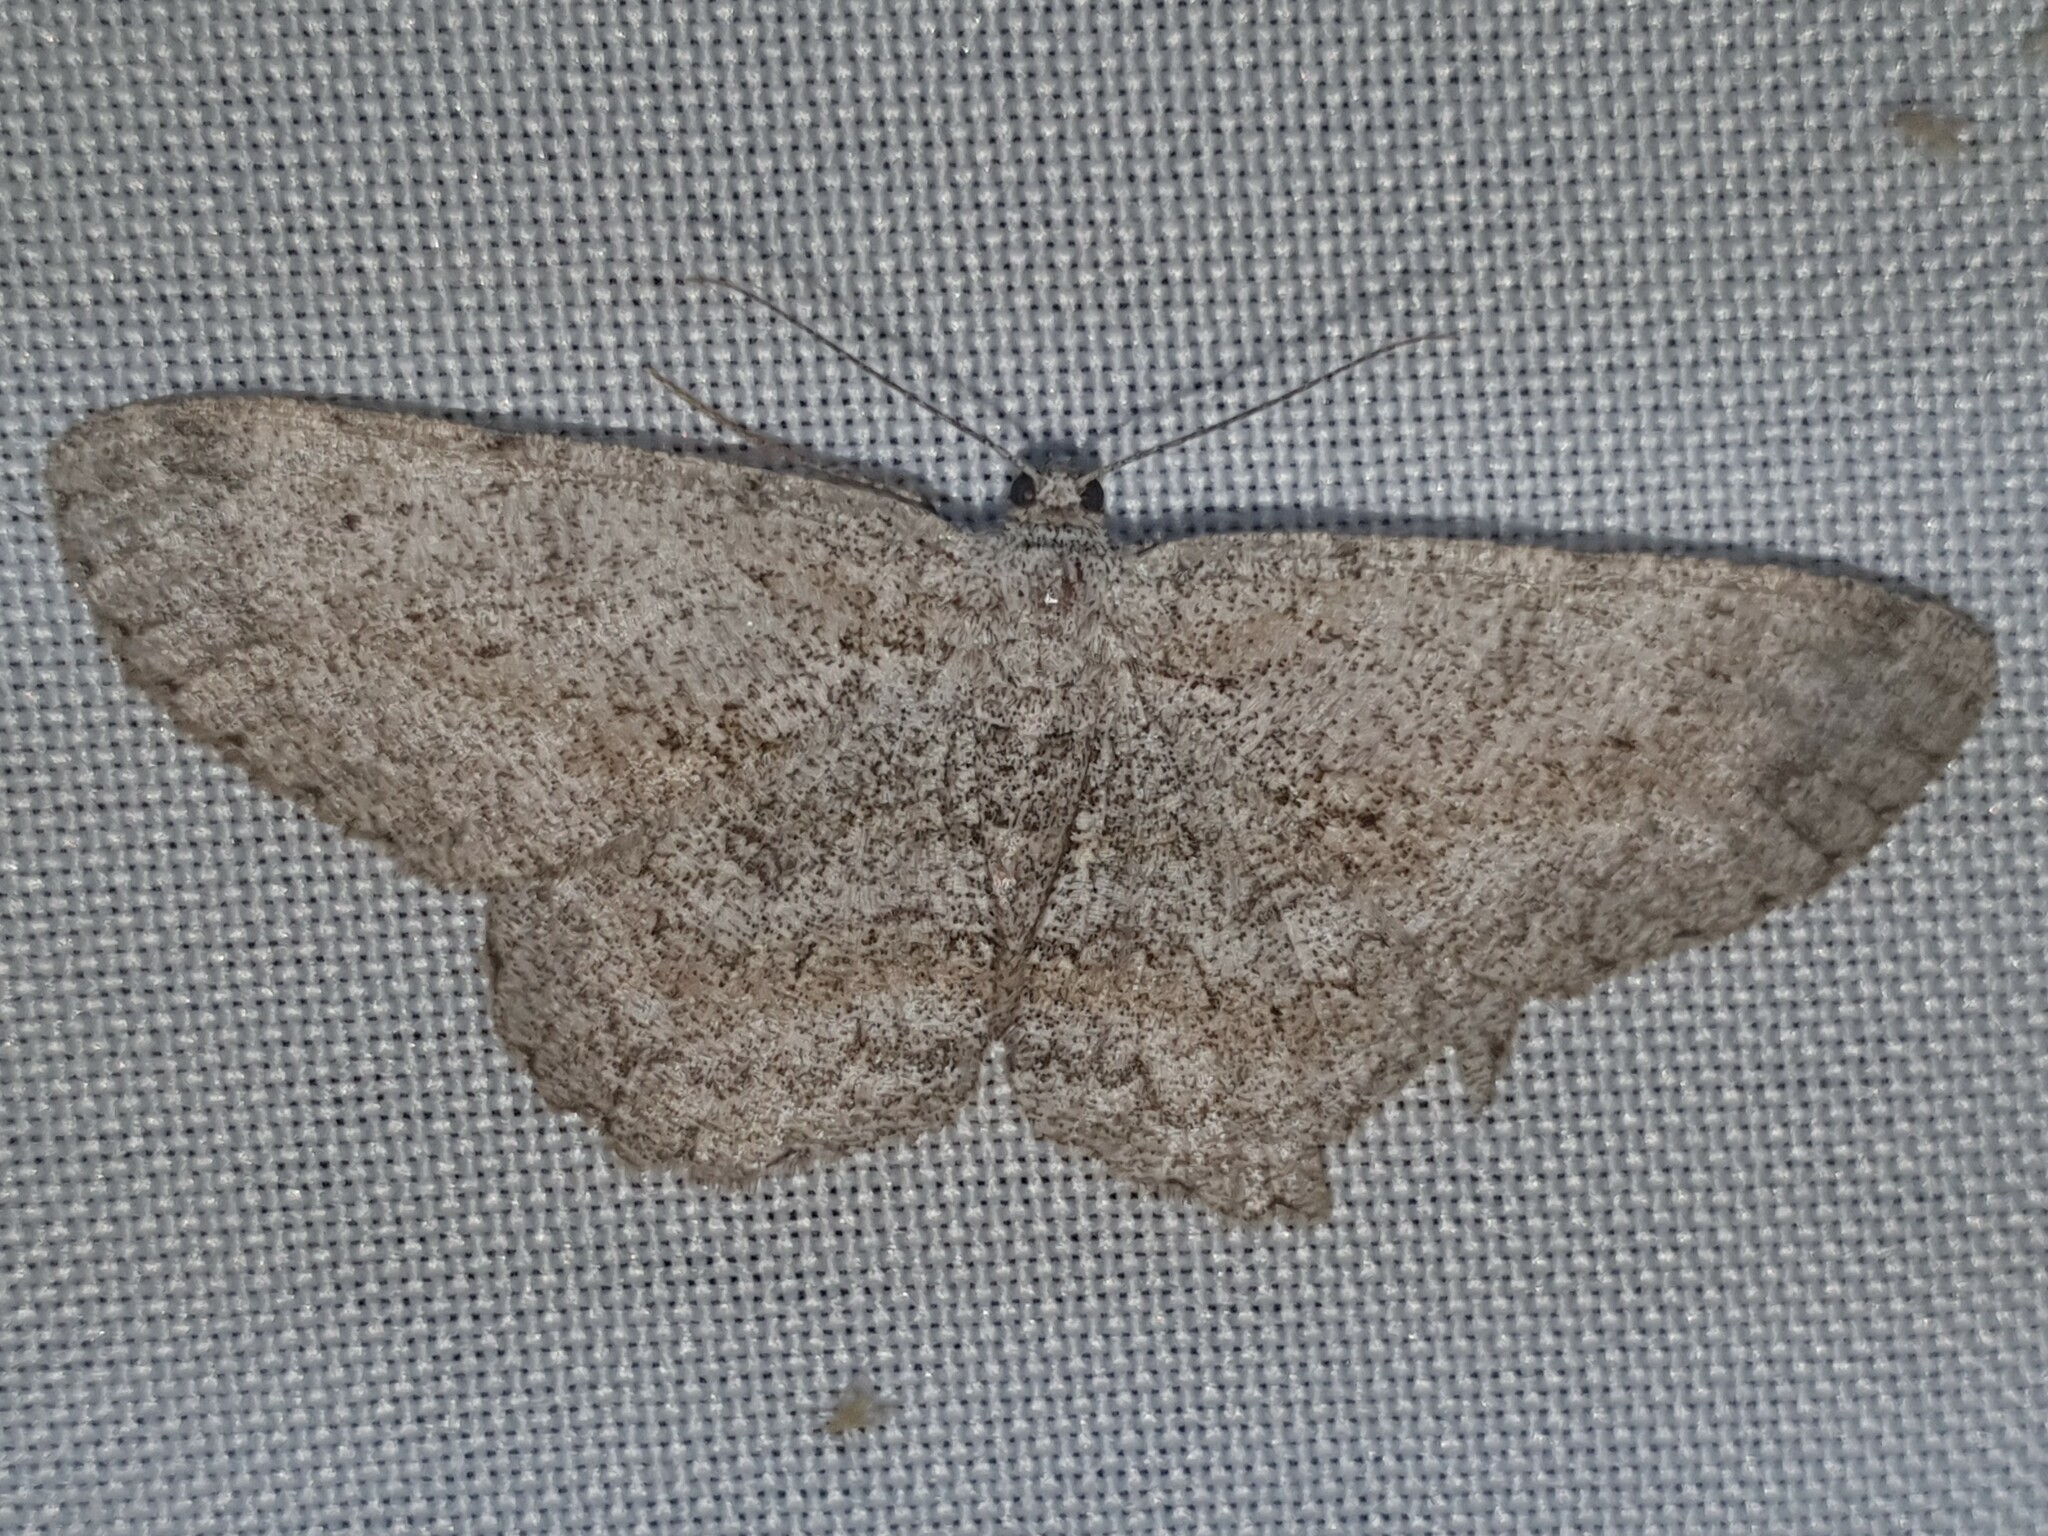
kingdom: Animalia
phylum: Arthropoda
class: Insecta
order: Lepidoptera
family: Geometridae
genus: Hypomecis
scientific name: Hypomecis punctinalis
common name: Pale oak beauty
